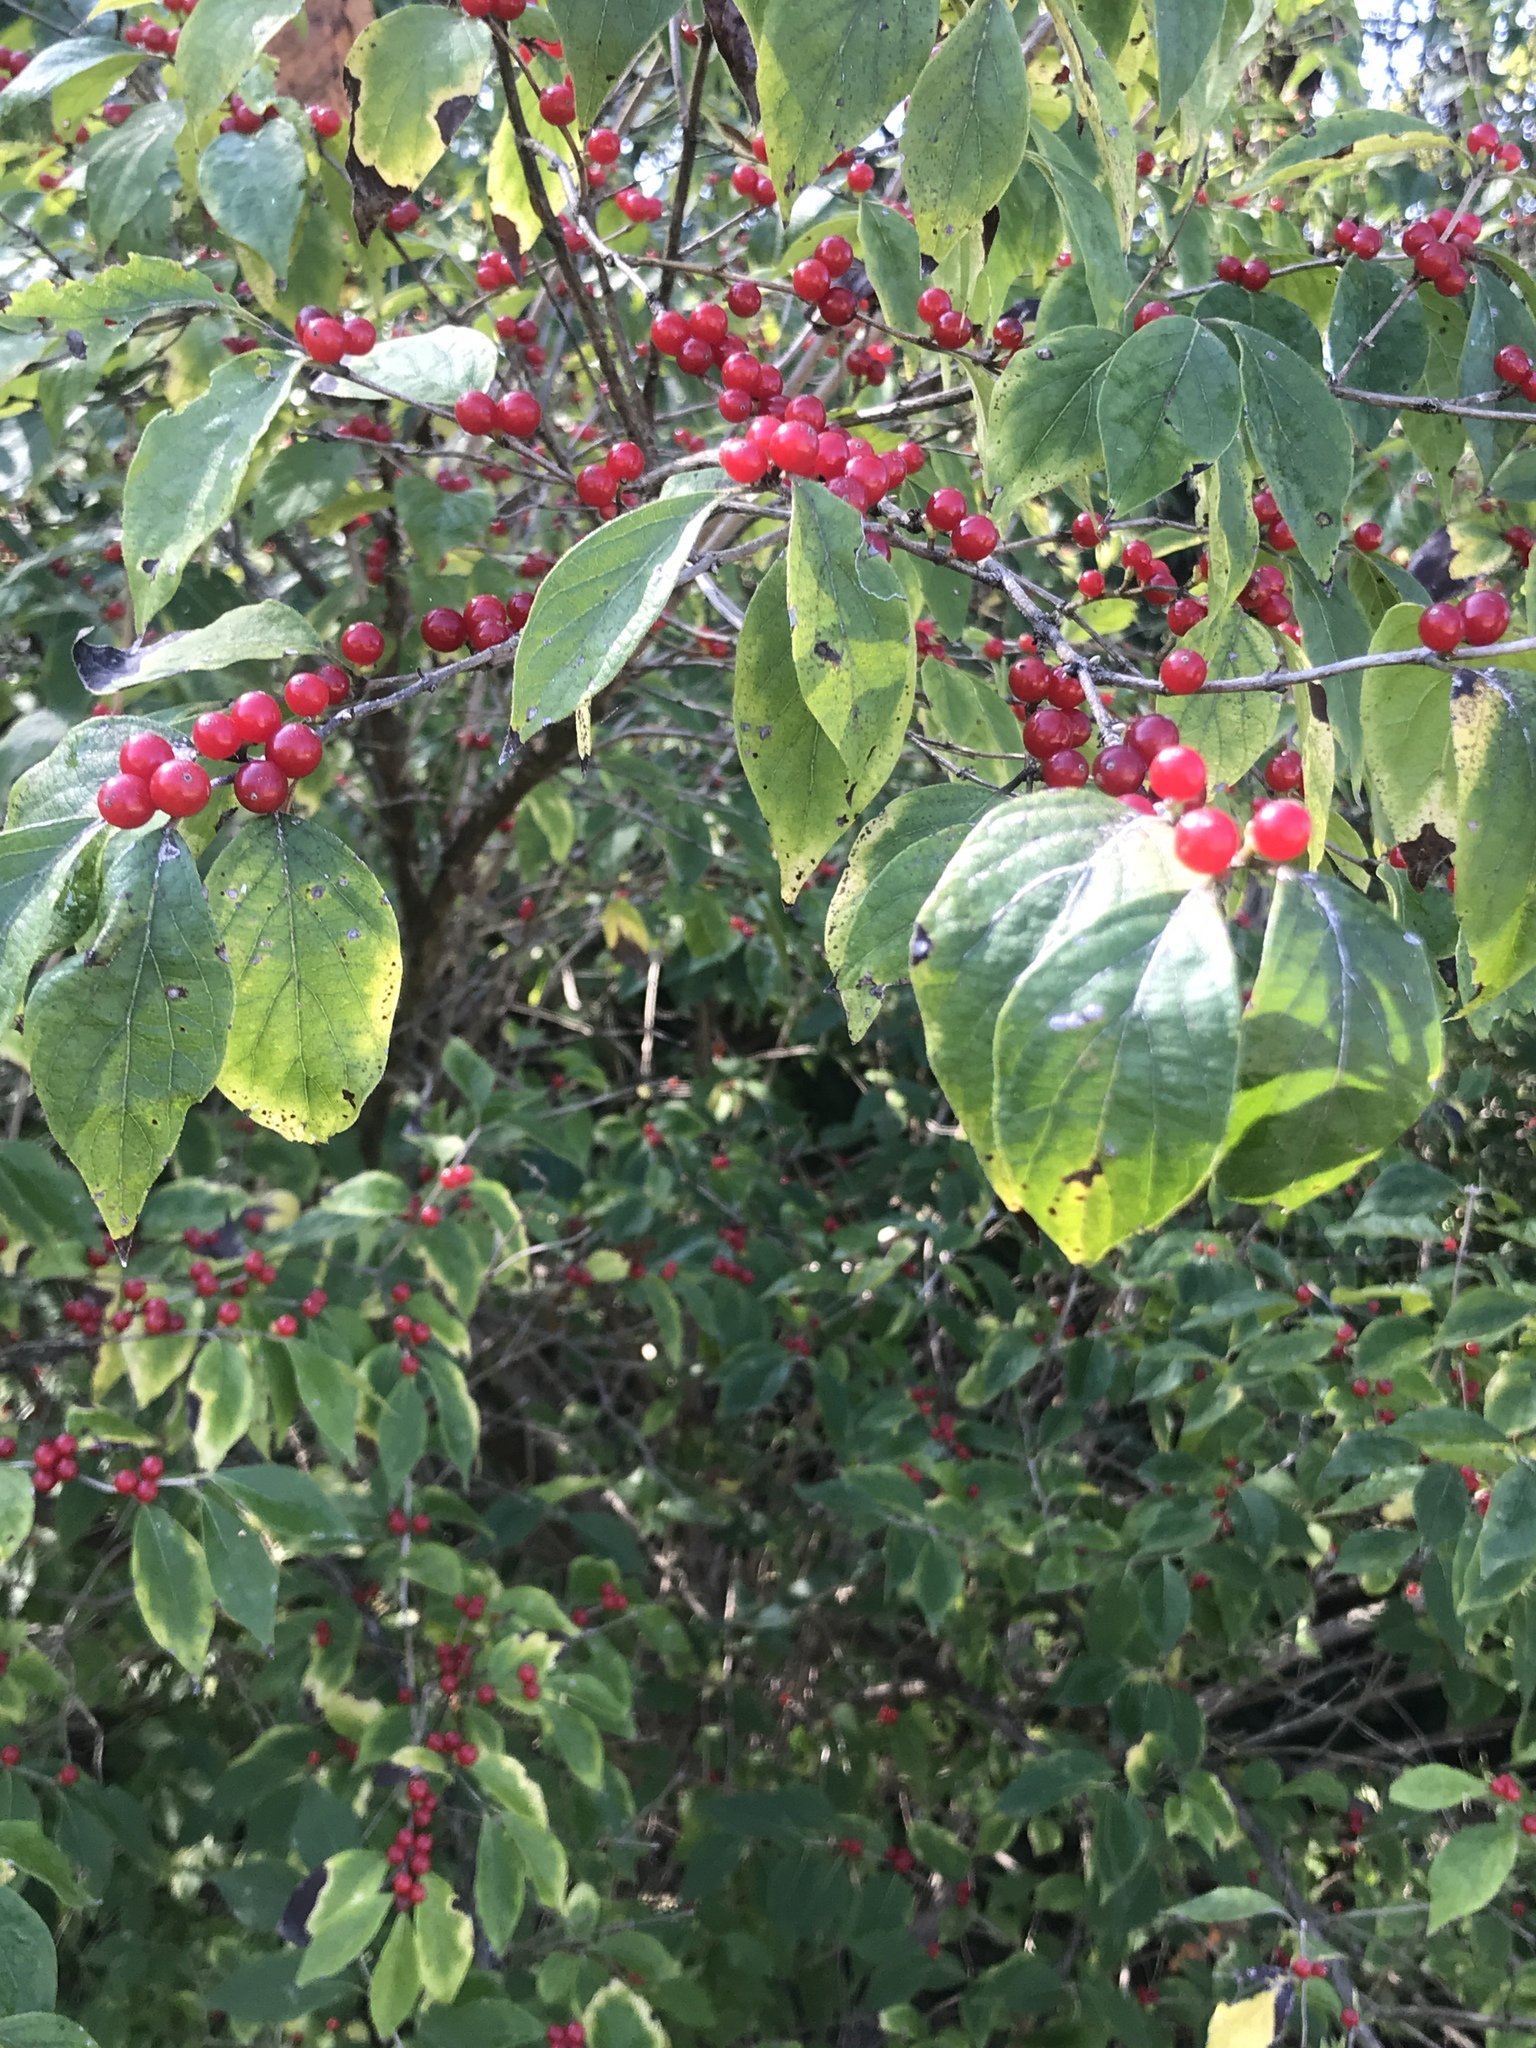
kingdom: Plantae
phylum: Tracheophyta
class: Magnoliopsida
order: Dipsacales
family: Caprifoliaceae
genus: Lonicera
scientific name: Lonicera maackii
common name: Amur honeysuckle
